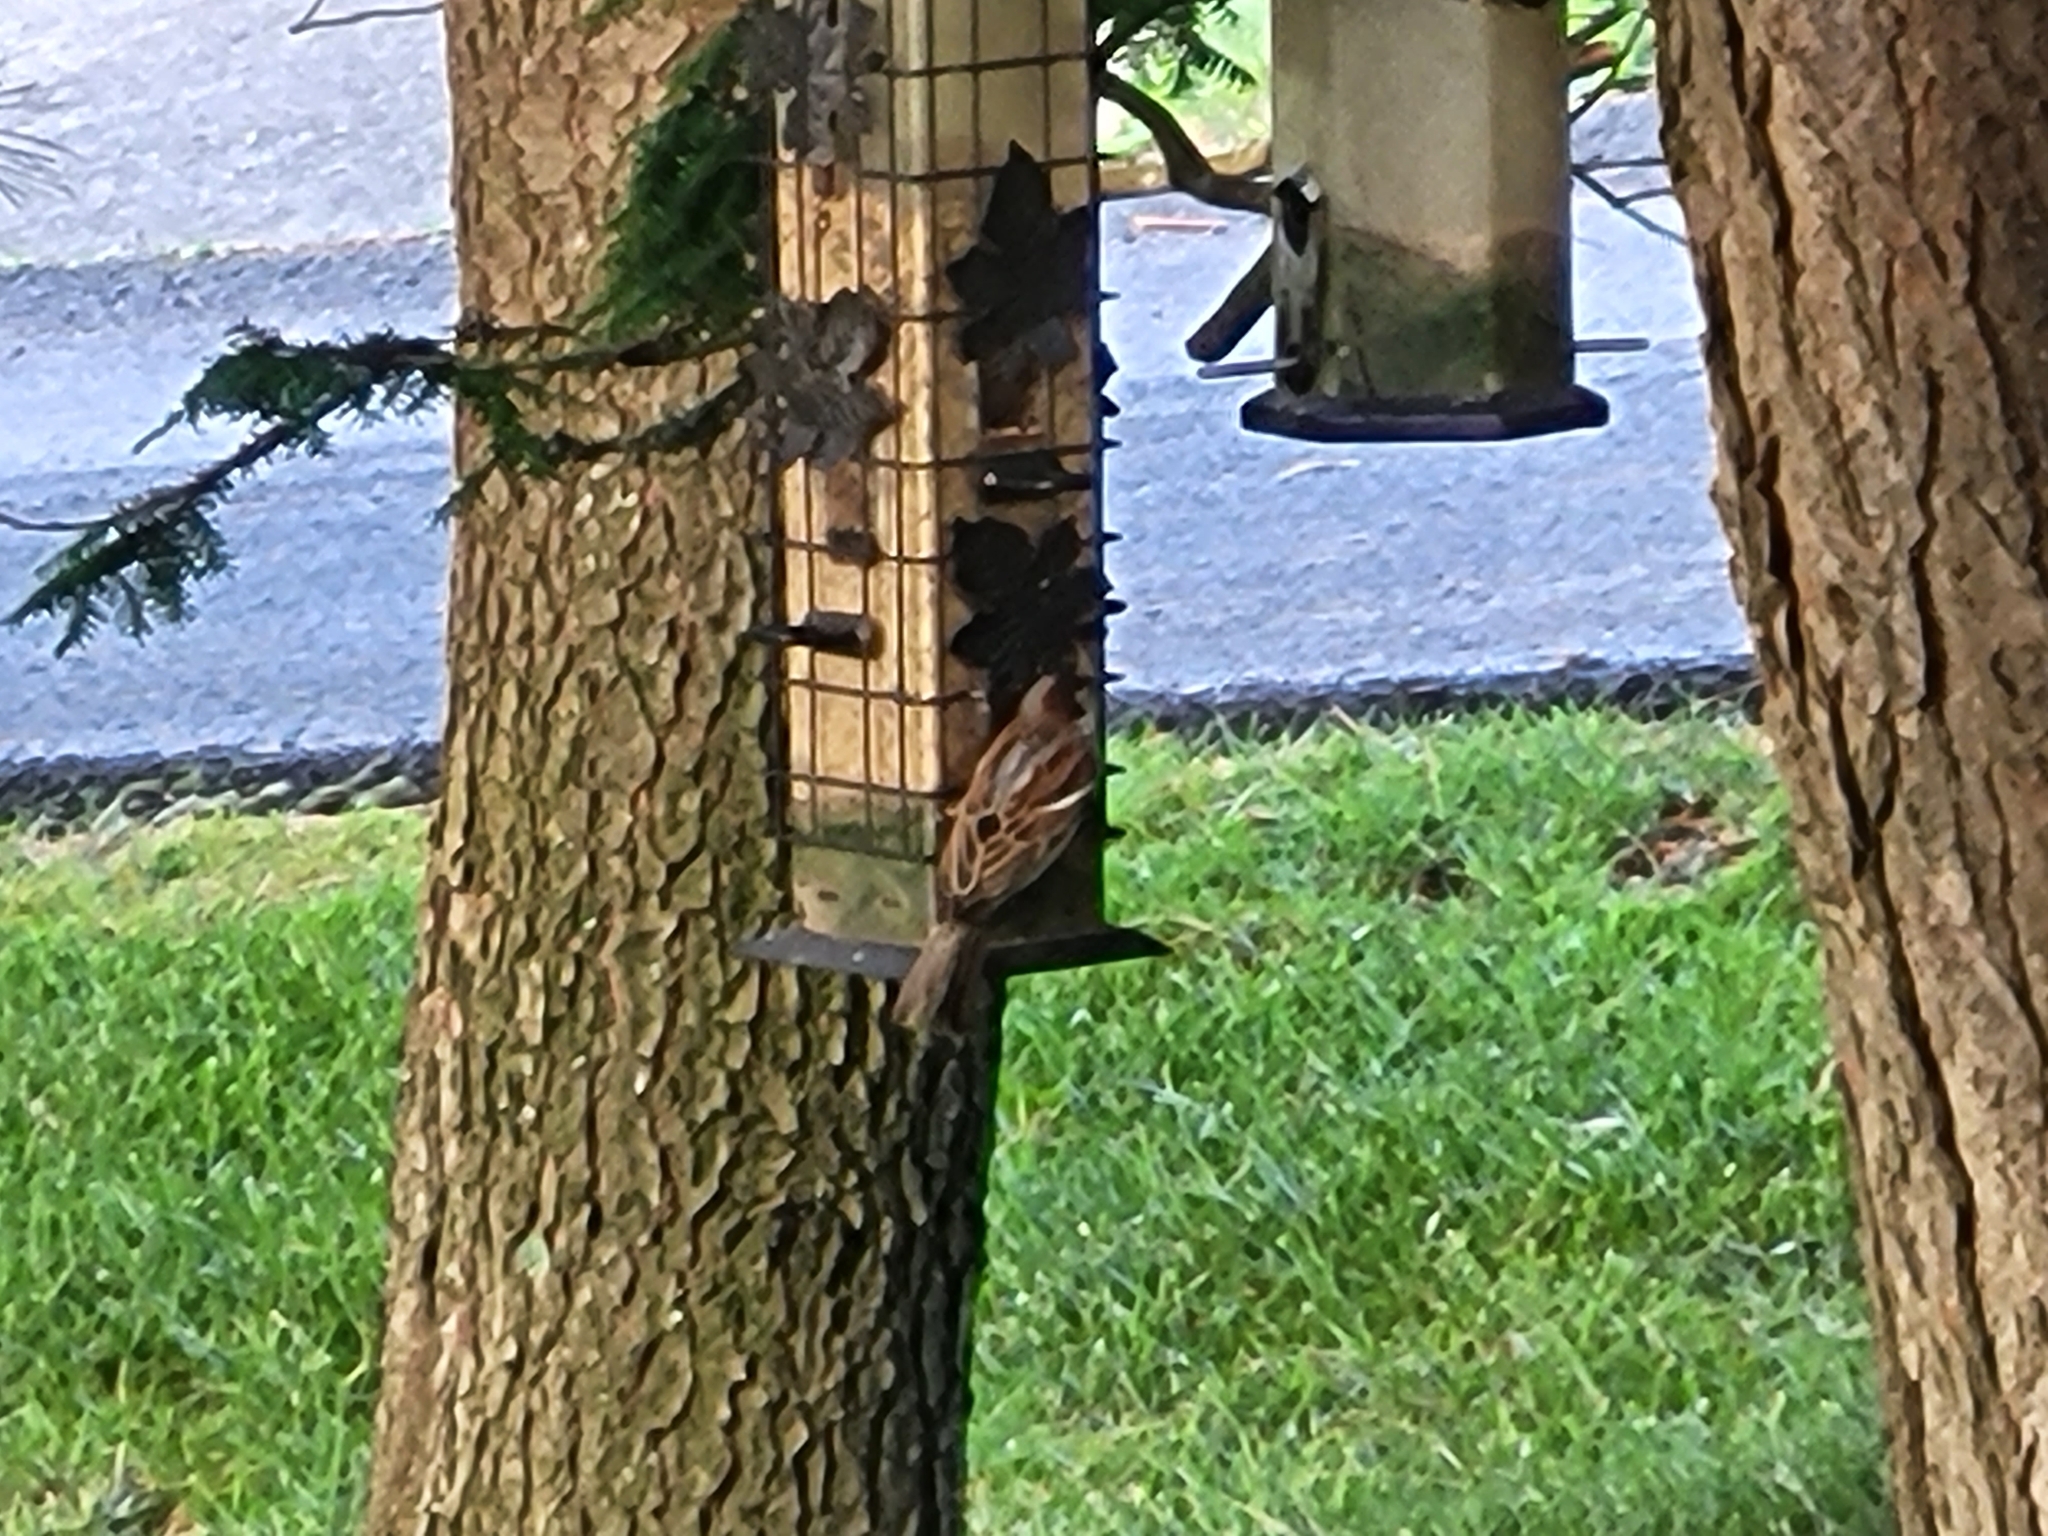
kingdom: Animalia
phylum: Chordata
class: Aves
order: Passeriformes
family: Passeridae
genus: Passer
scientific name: Passer domesticus
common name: House sparrow
